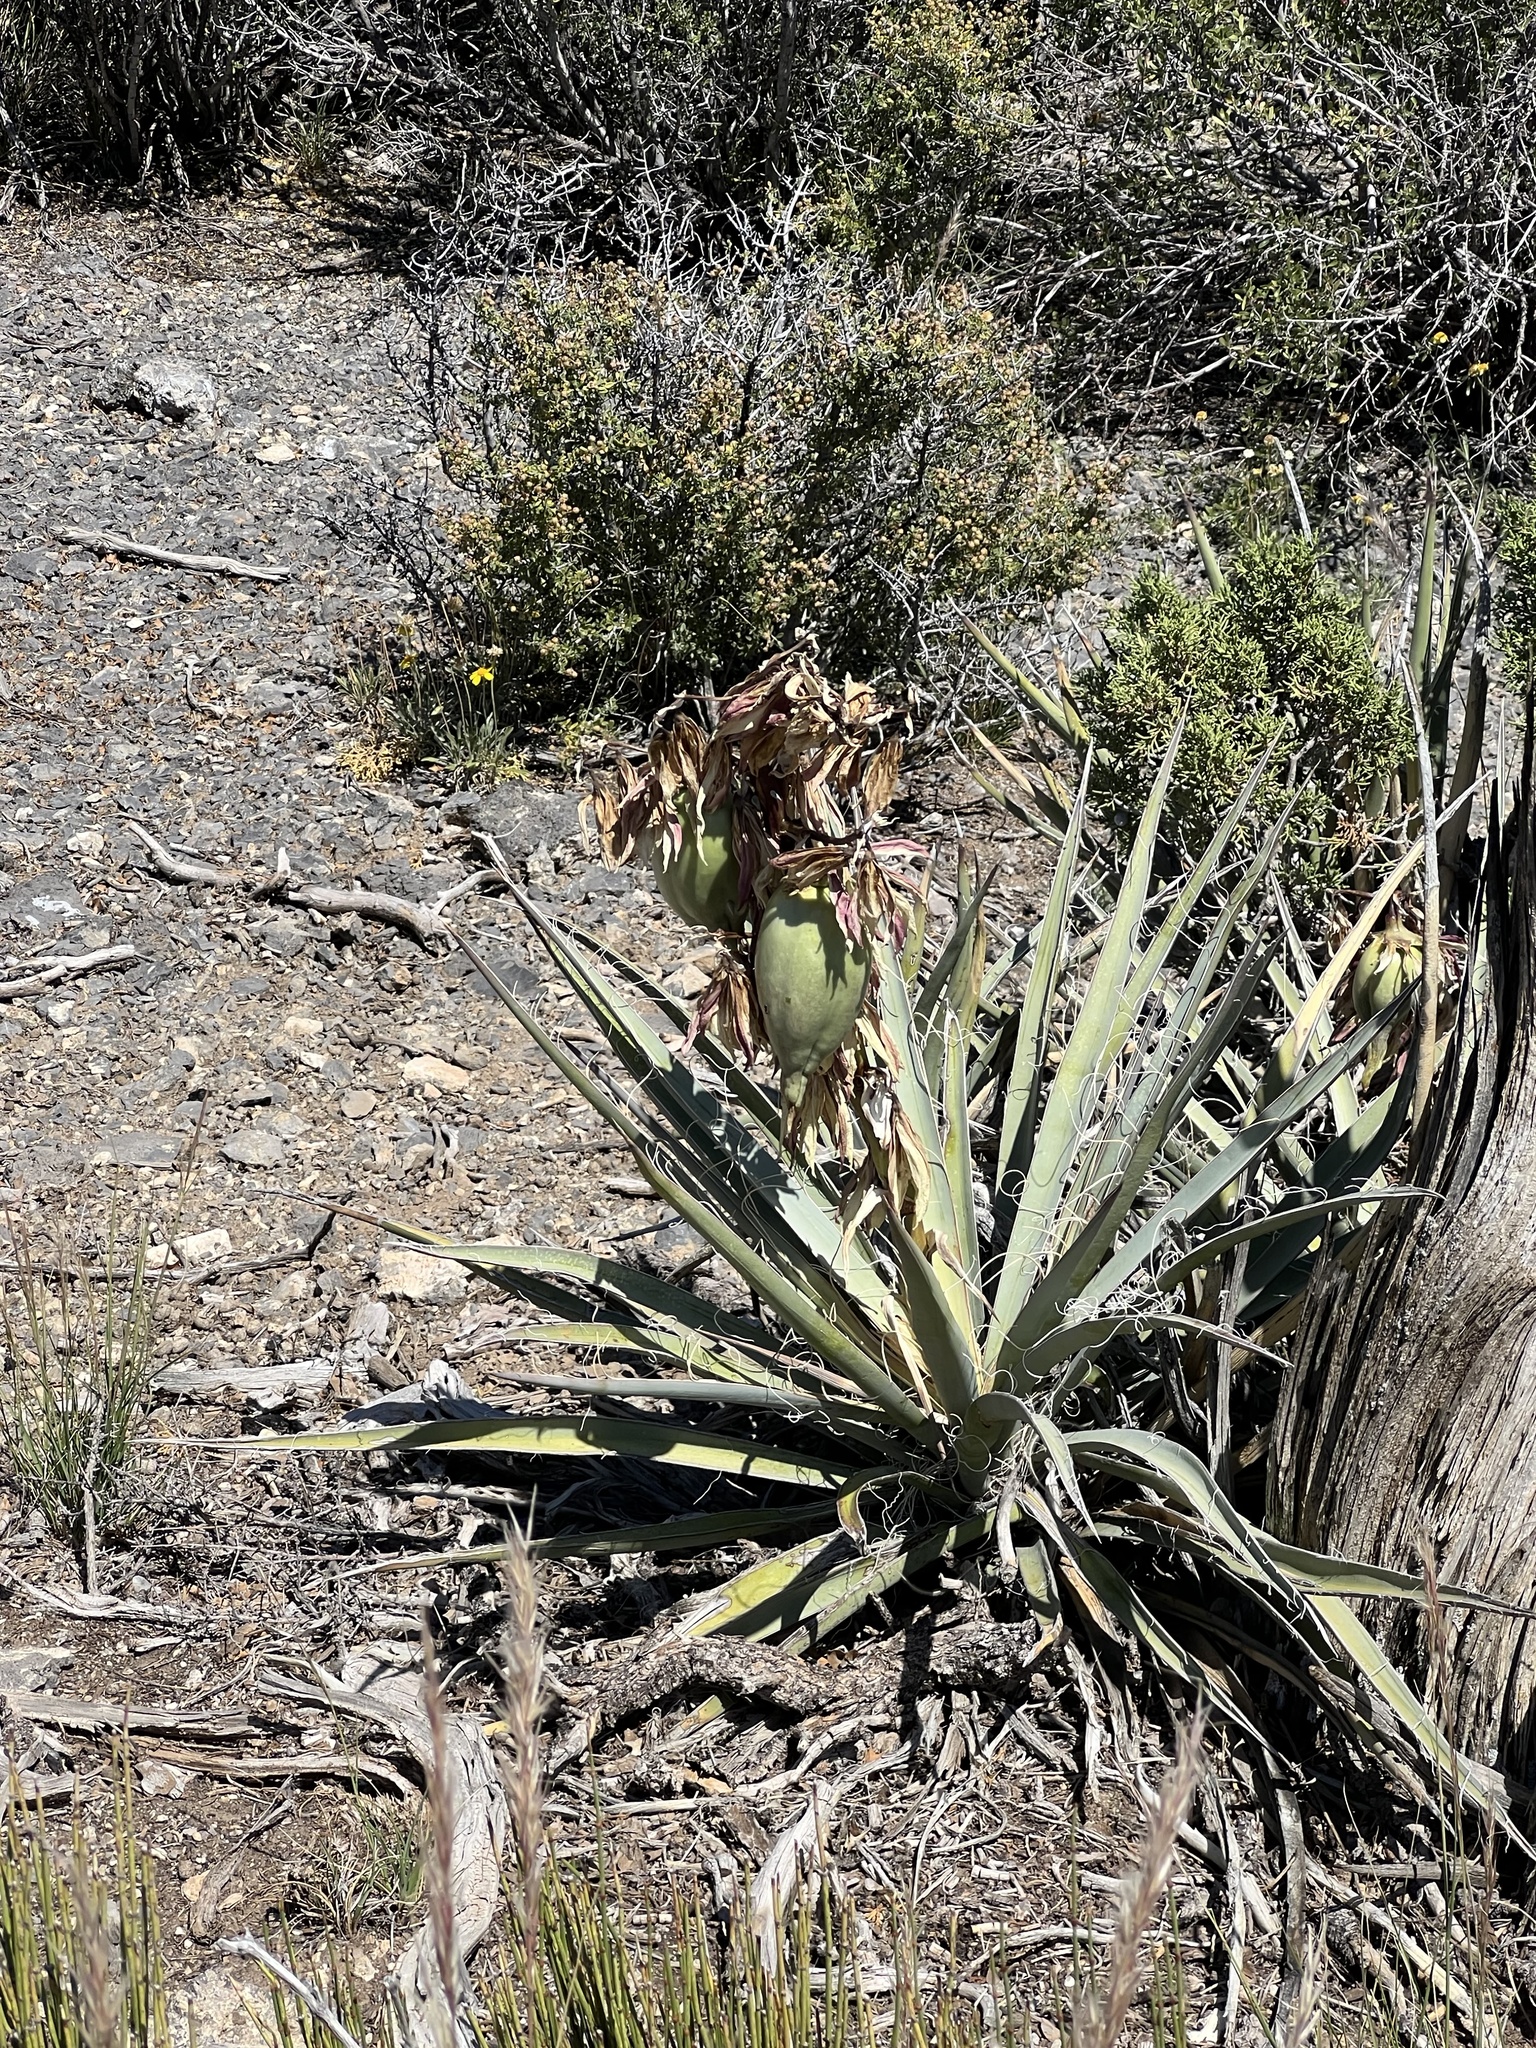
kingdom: Plantae
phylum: Tracheophyta
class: Liliopsida
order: Asparagales
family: Asparagaceae
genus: Yucca
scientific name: Yucca baccata
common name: Banana yucca
